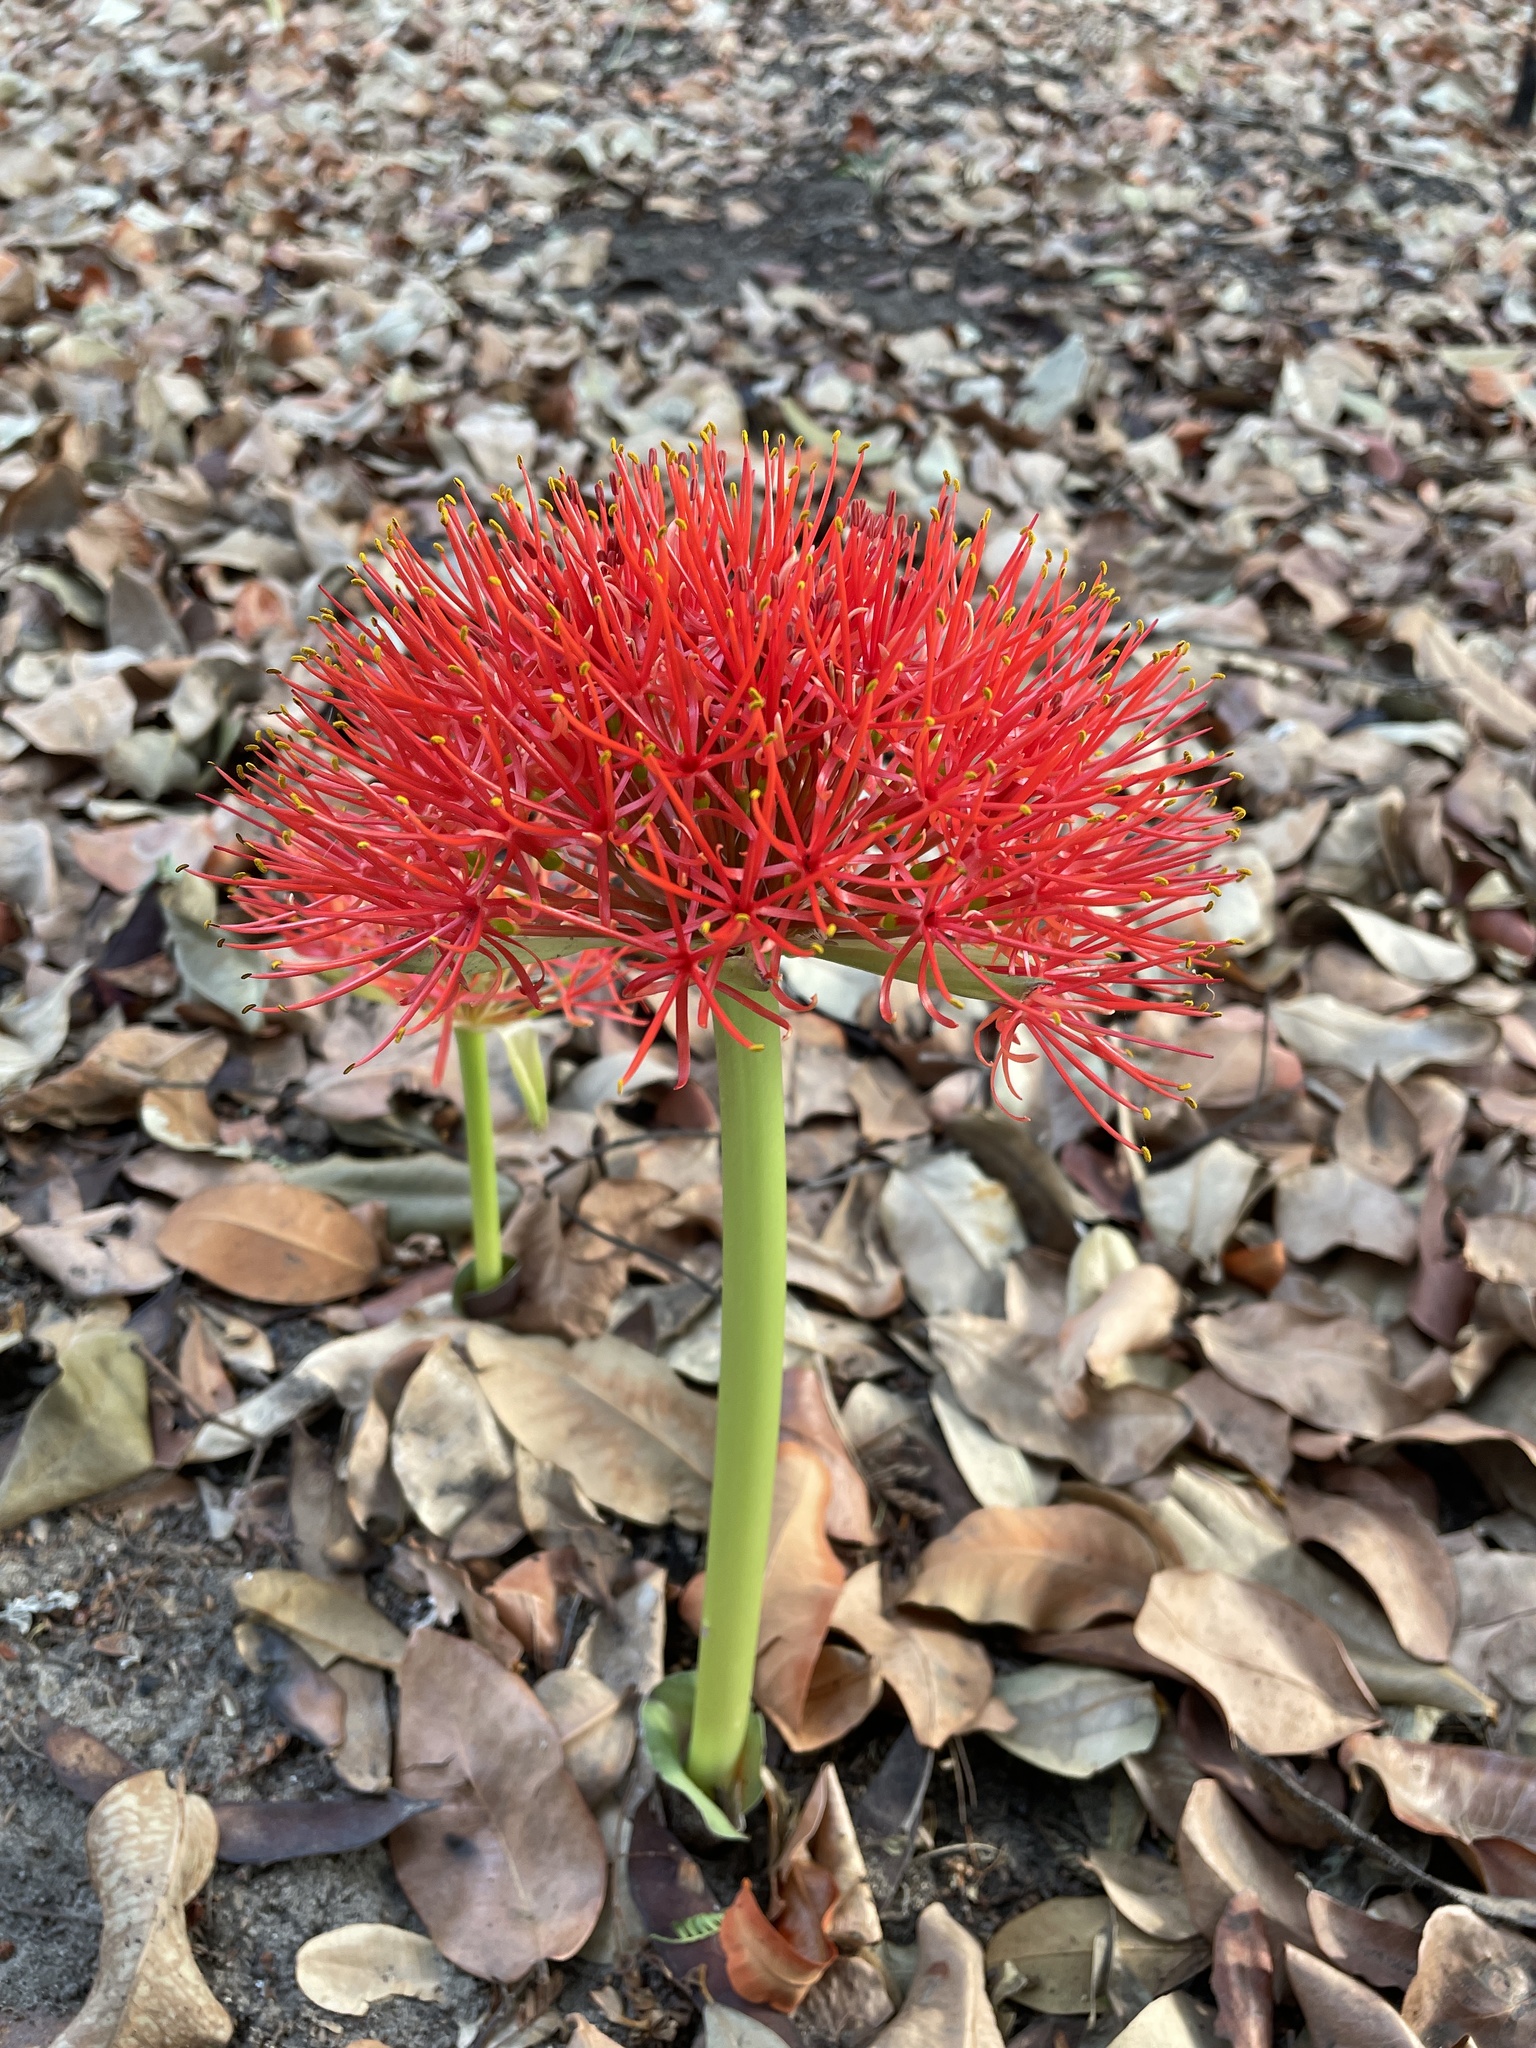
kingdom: Plantae
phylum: Tracheophyta
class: Liliopsida
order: Asparagales
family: Amaryllidaceae
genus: Scadoxus
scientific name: Scadoxus multiflorus
